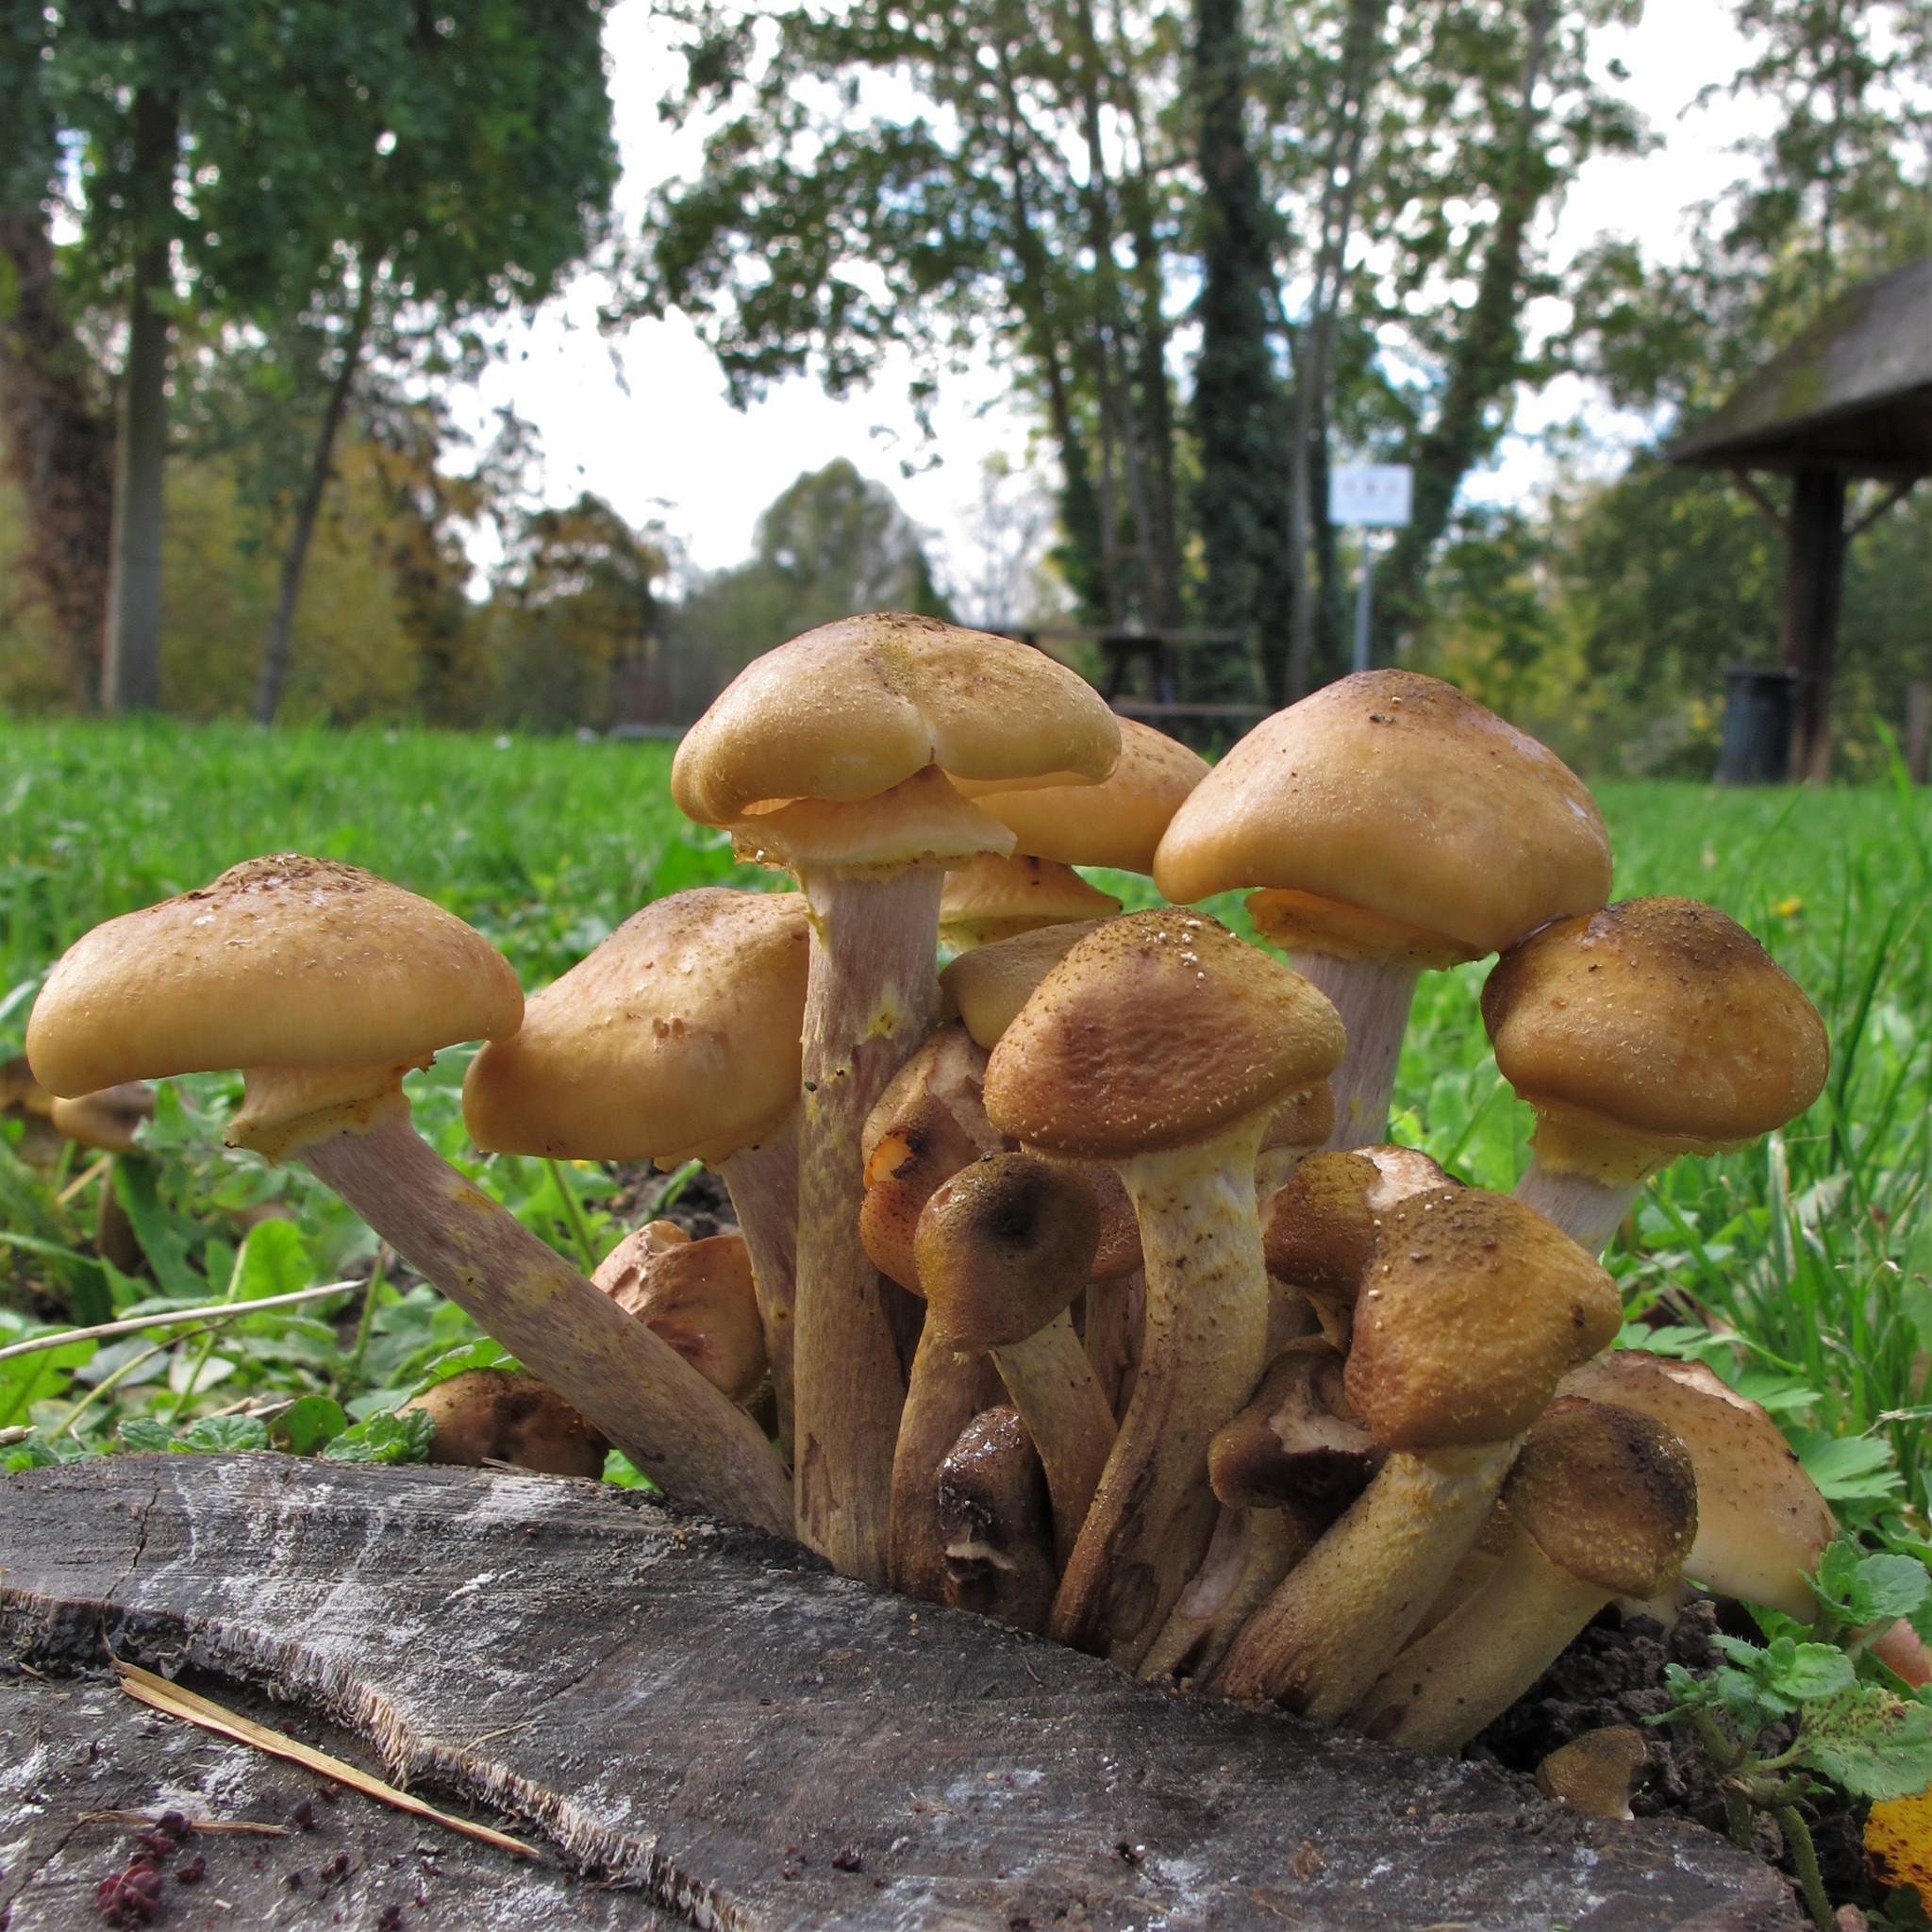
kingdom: Fungi
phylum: Basidiomycota
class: Agaricomycetes
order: Agaricales
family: Physalacriaceae
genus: Armillaria
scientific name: Armillaria mellea
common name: Honey fungus
